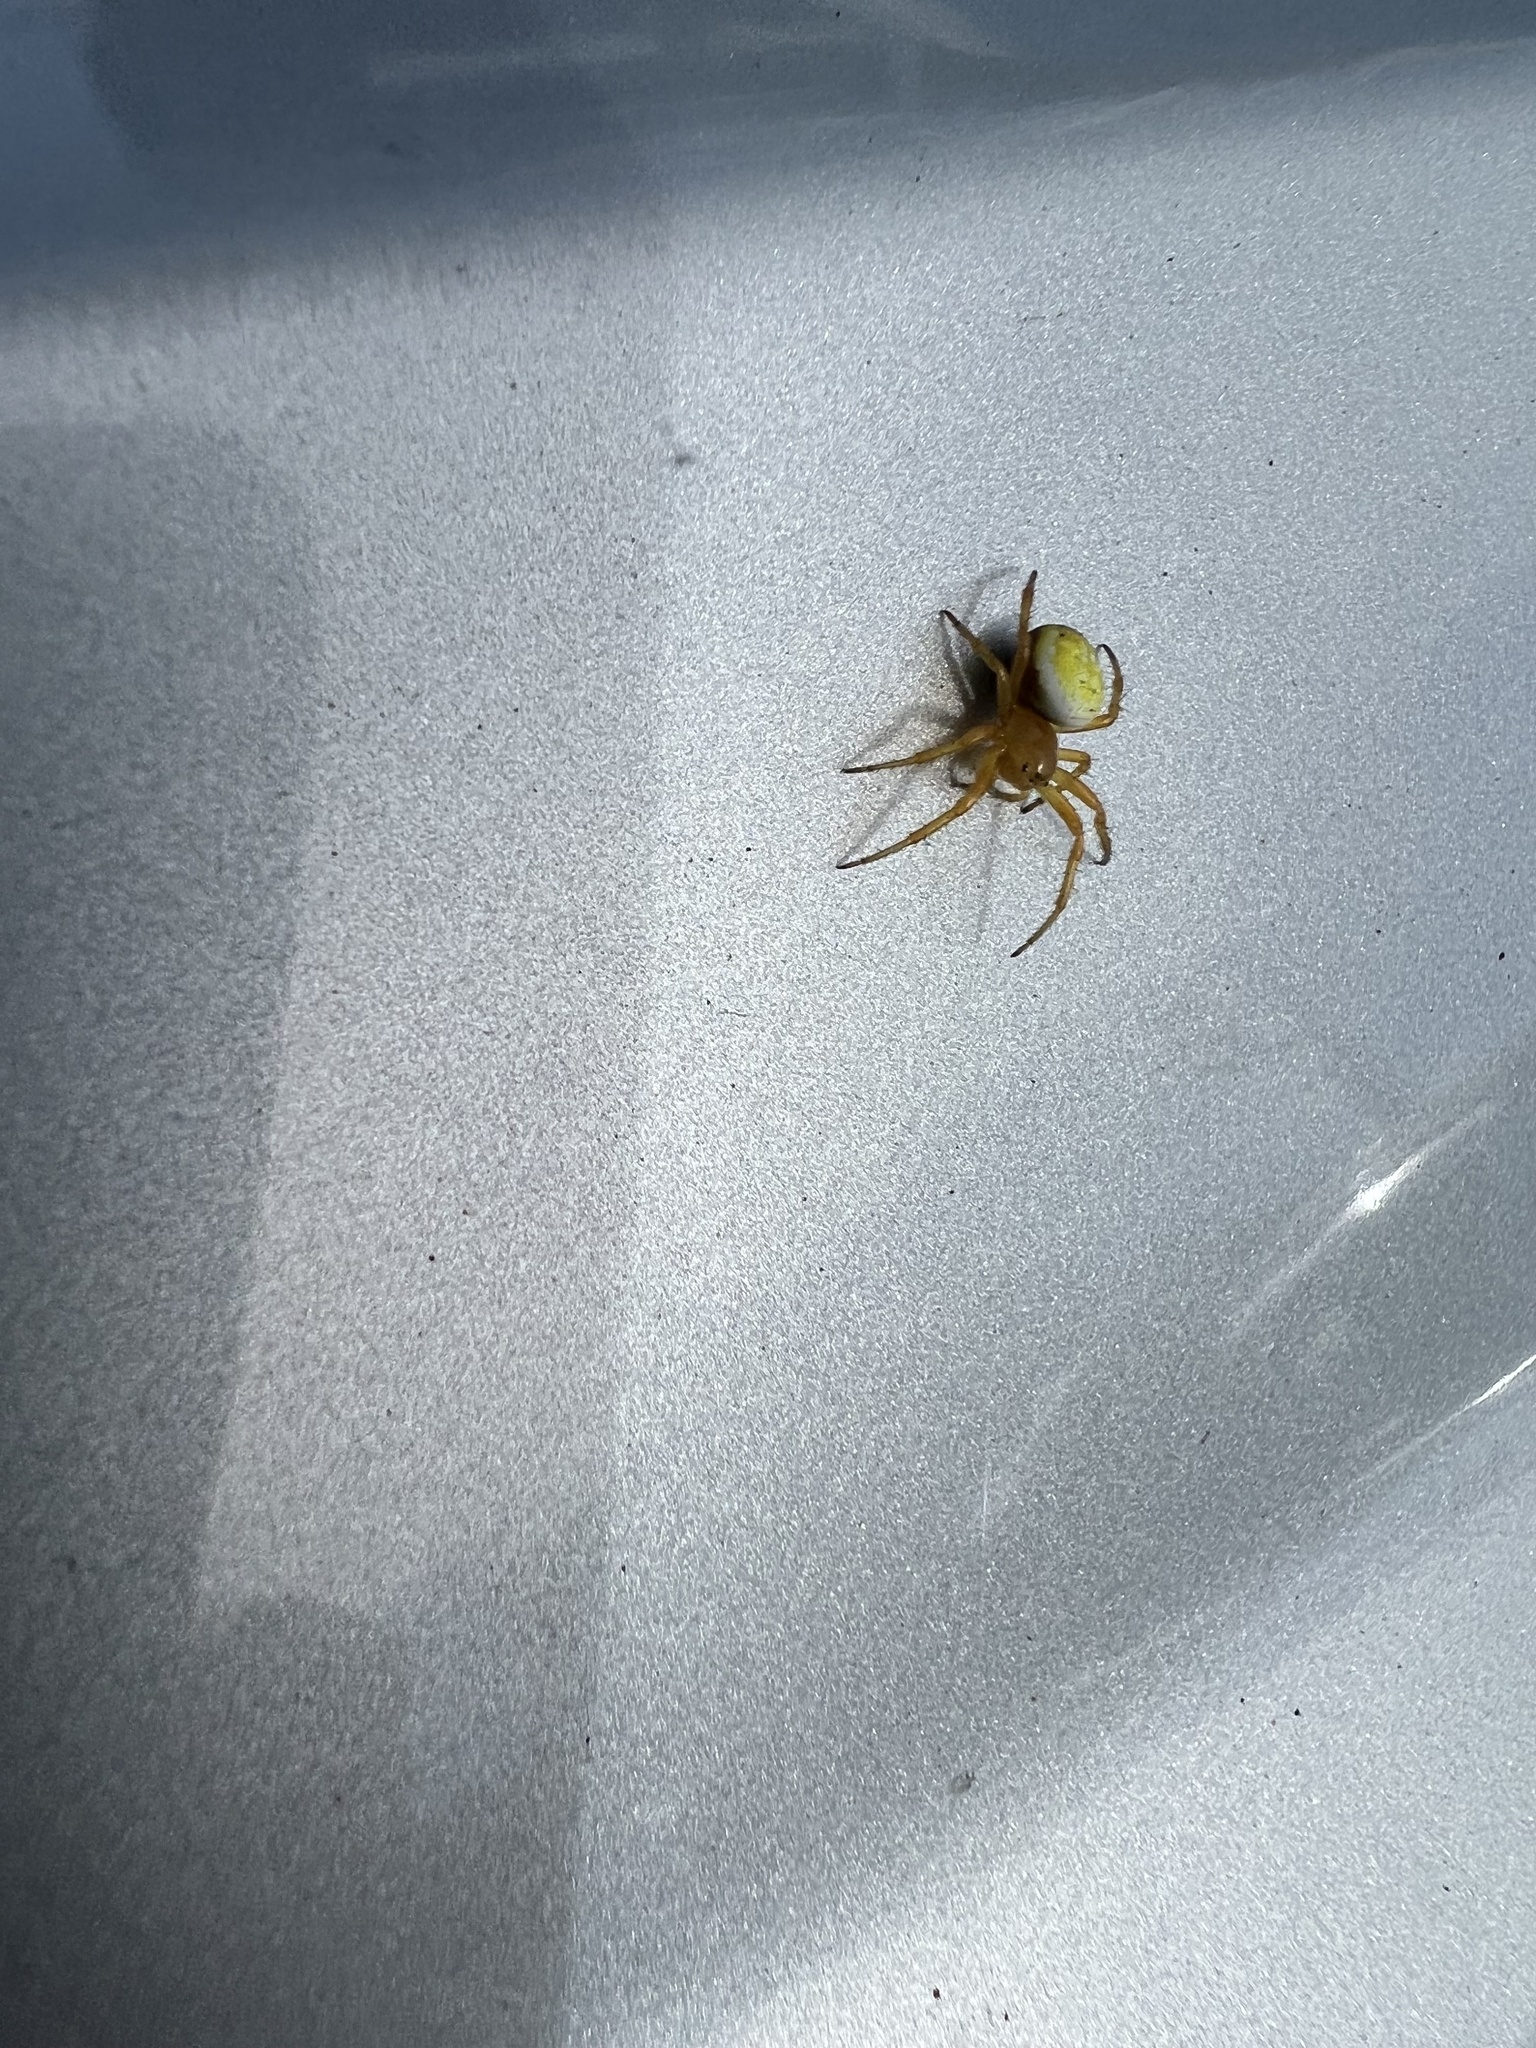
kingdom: Animalia
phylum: Arthropoda
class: Arachnida
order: Araneae
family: Araneidae
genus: Araniella
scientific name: Araniella displicata
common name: Sixspotted orb weaver
